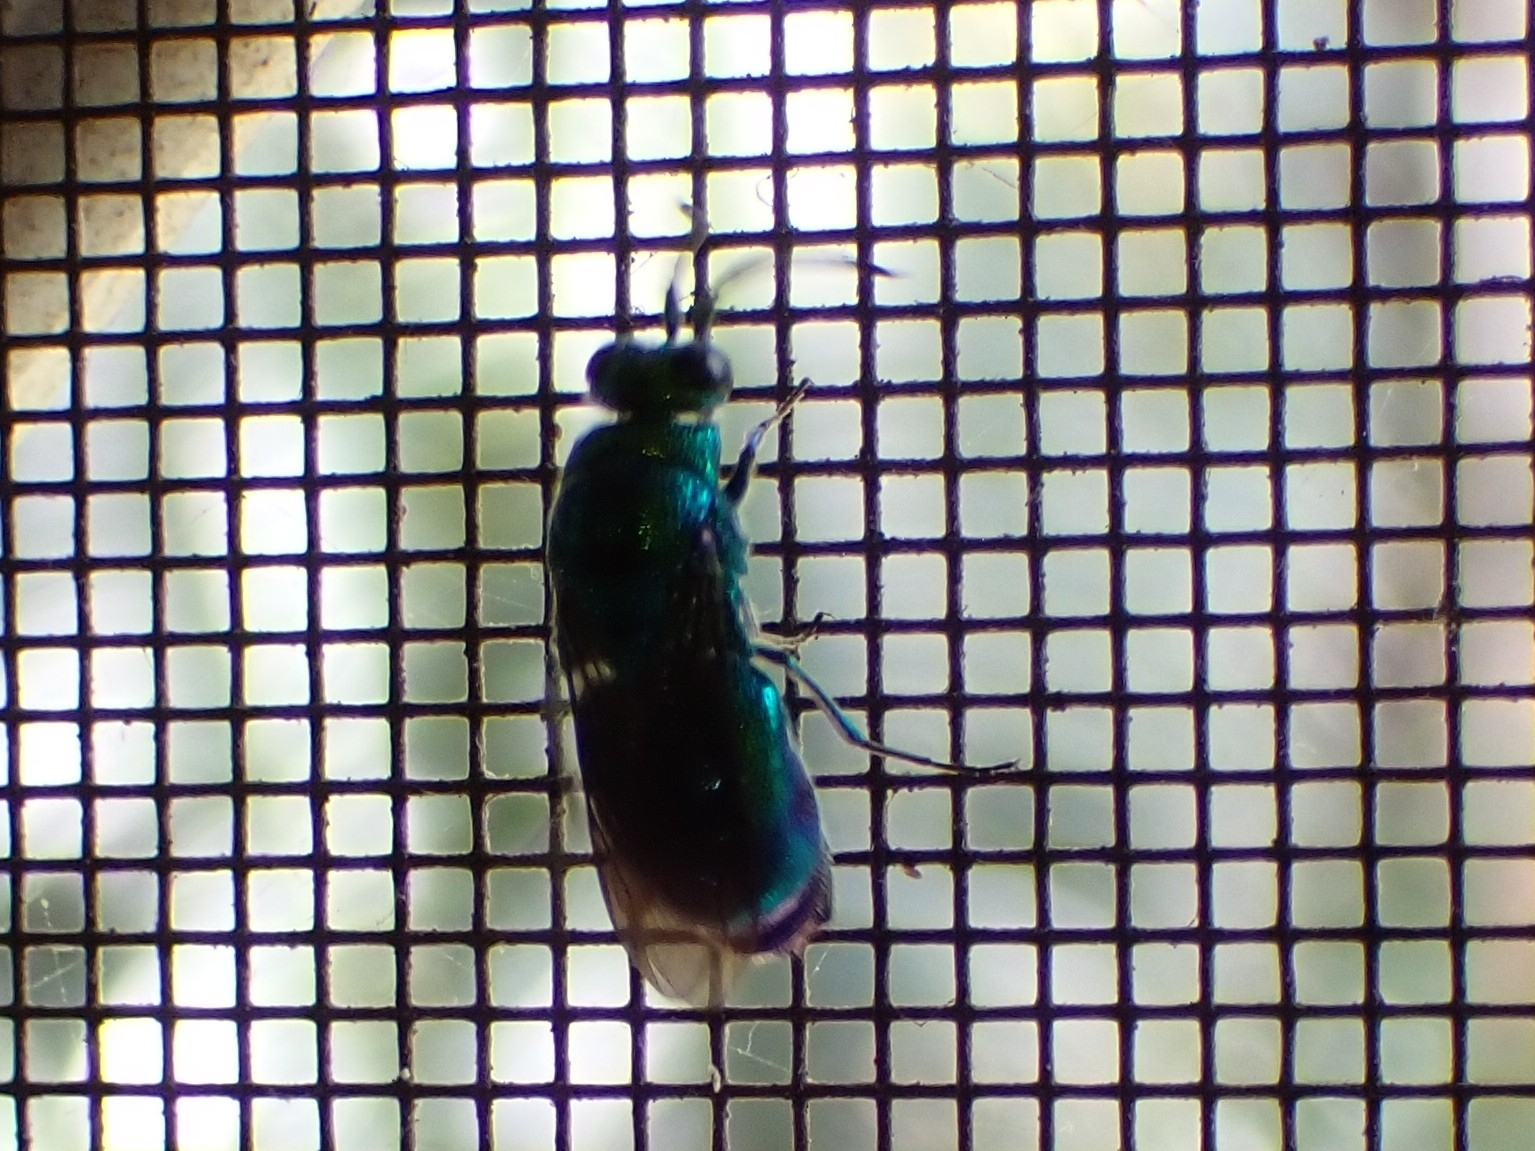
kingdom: Animalia
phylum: Arthropoda
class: Insecta
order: Hymenoptera
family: Chrysididae
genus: Chrysis
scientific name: Chrysis lincea
